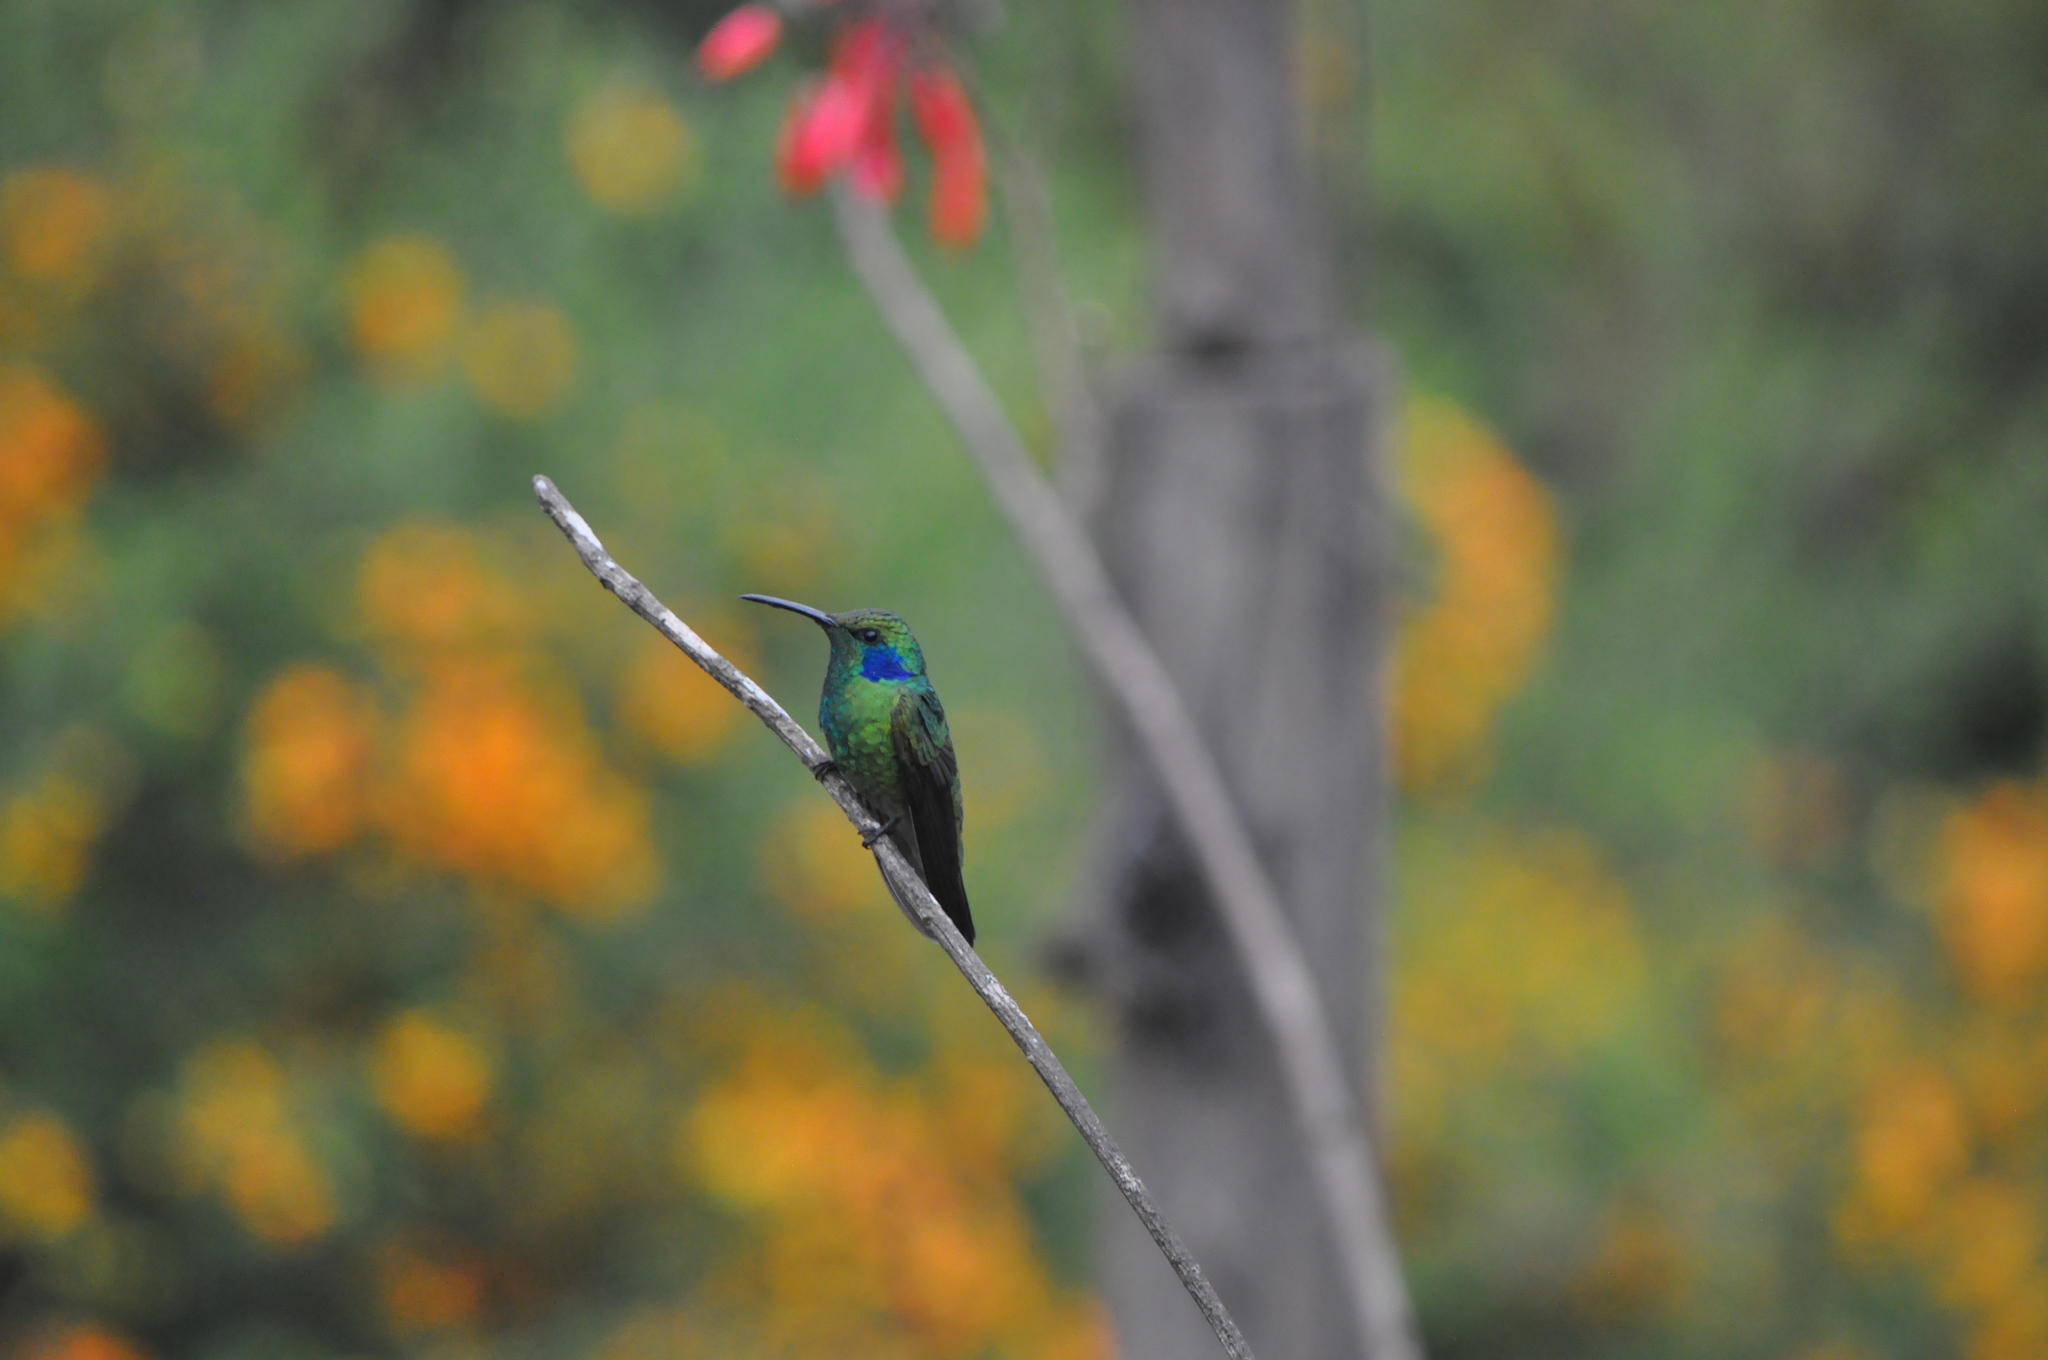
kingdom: Animalia
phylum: Chordata
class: Aves
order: Apodiformes
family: Trochilidae
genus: Colibri
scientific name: Colibri cyanotus
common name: Lesser violetear
